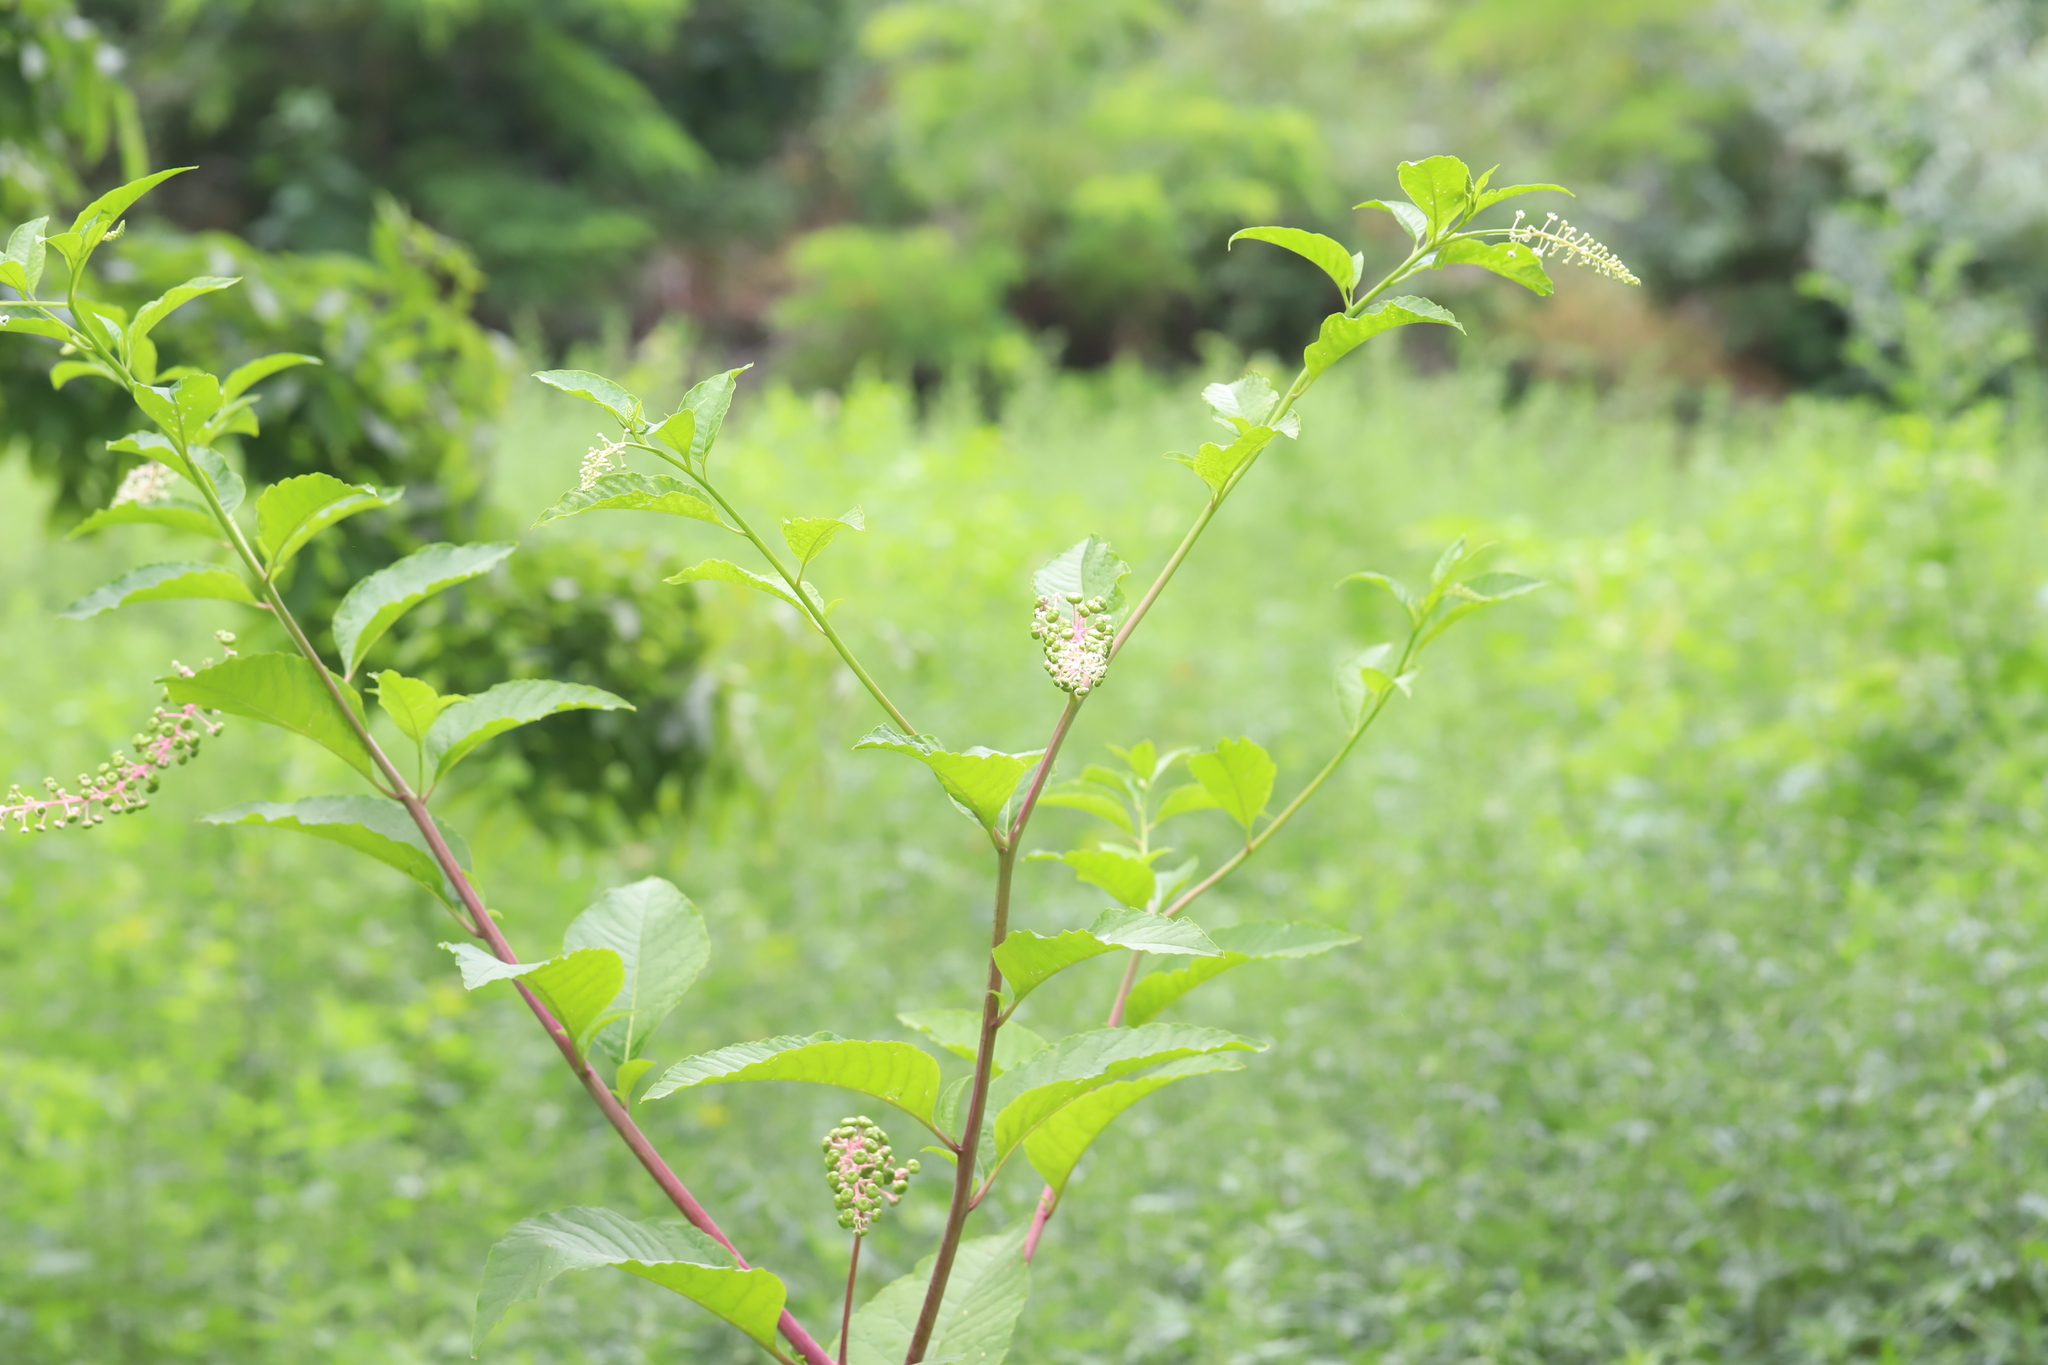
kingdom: Plantae
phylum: Tracheophyta
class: Magnoliopsida
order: Caryophyllales
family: Phytolaccaceae
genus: Phytolacca
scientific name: Phytolacca americana
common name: American pokeweed
